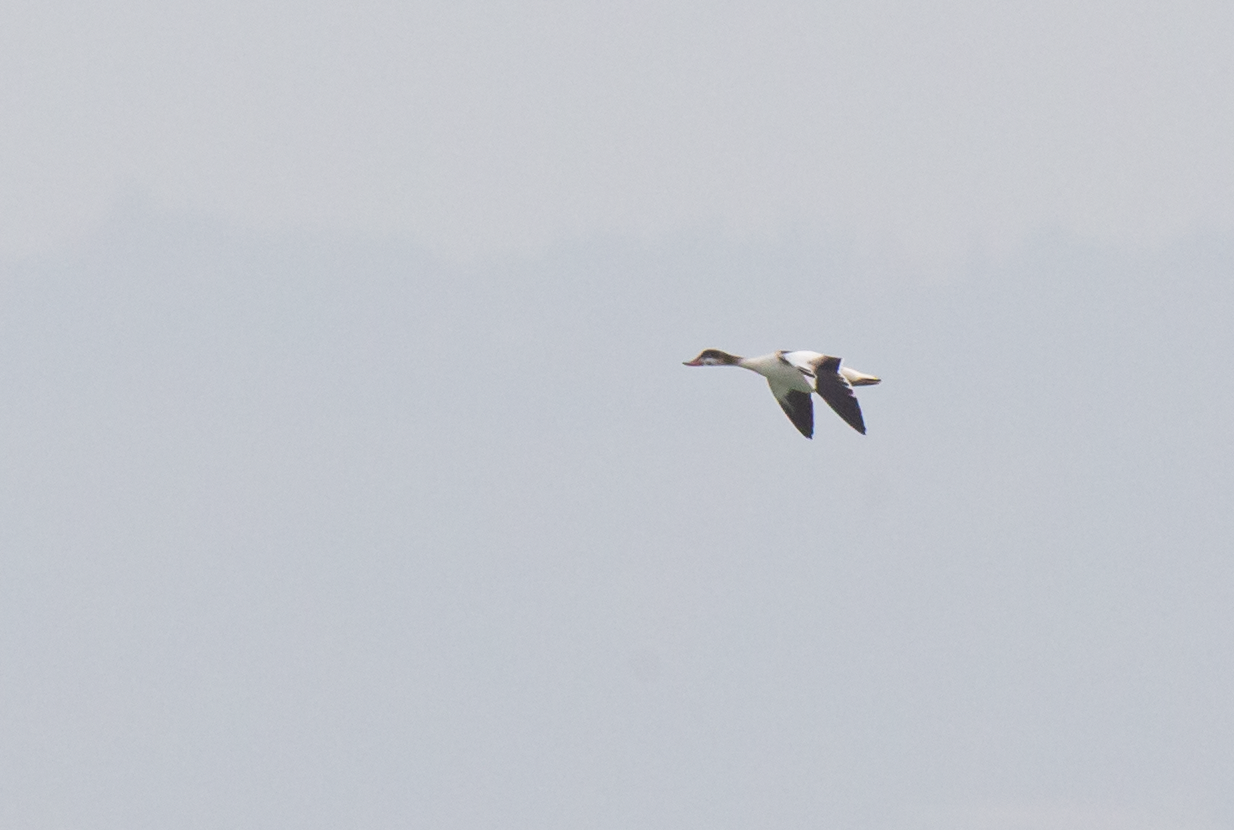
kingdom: Animalia
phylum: Chordata
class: Aves
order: Anseriformes
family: Anatidae
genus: Tadorna
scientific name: Tadorna tadorna
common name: Common shelduck
